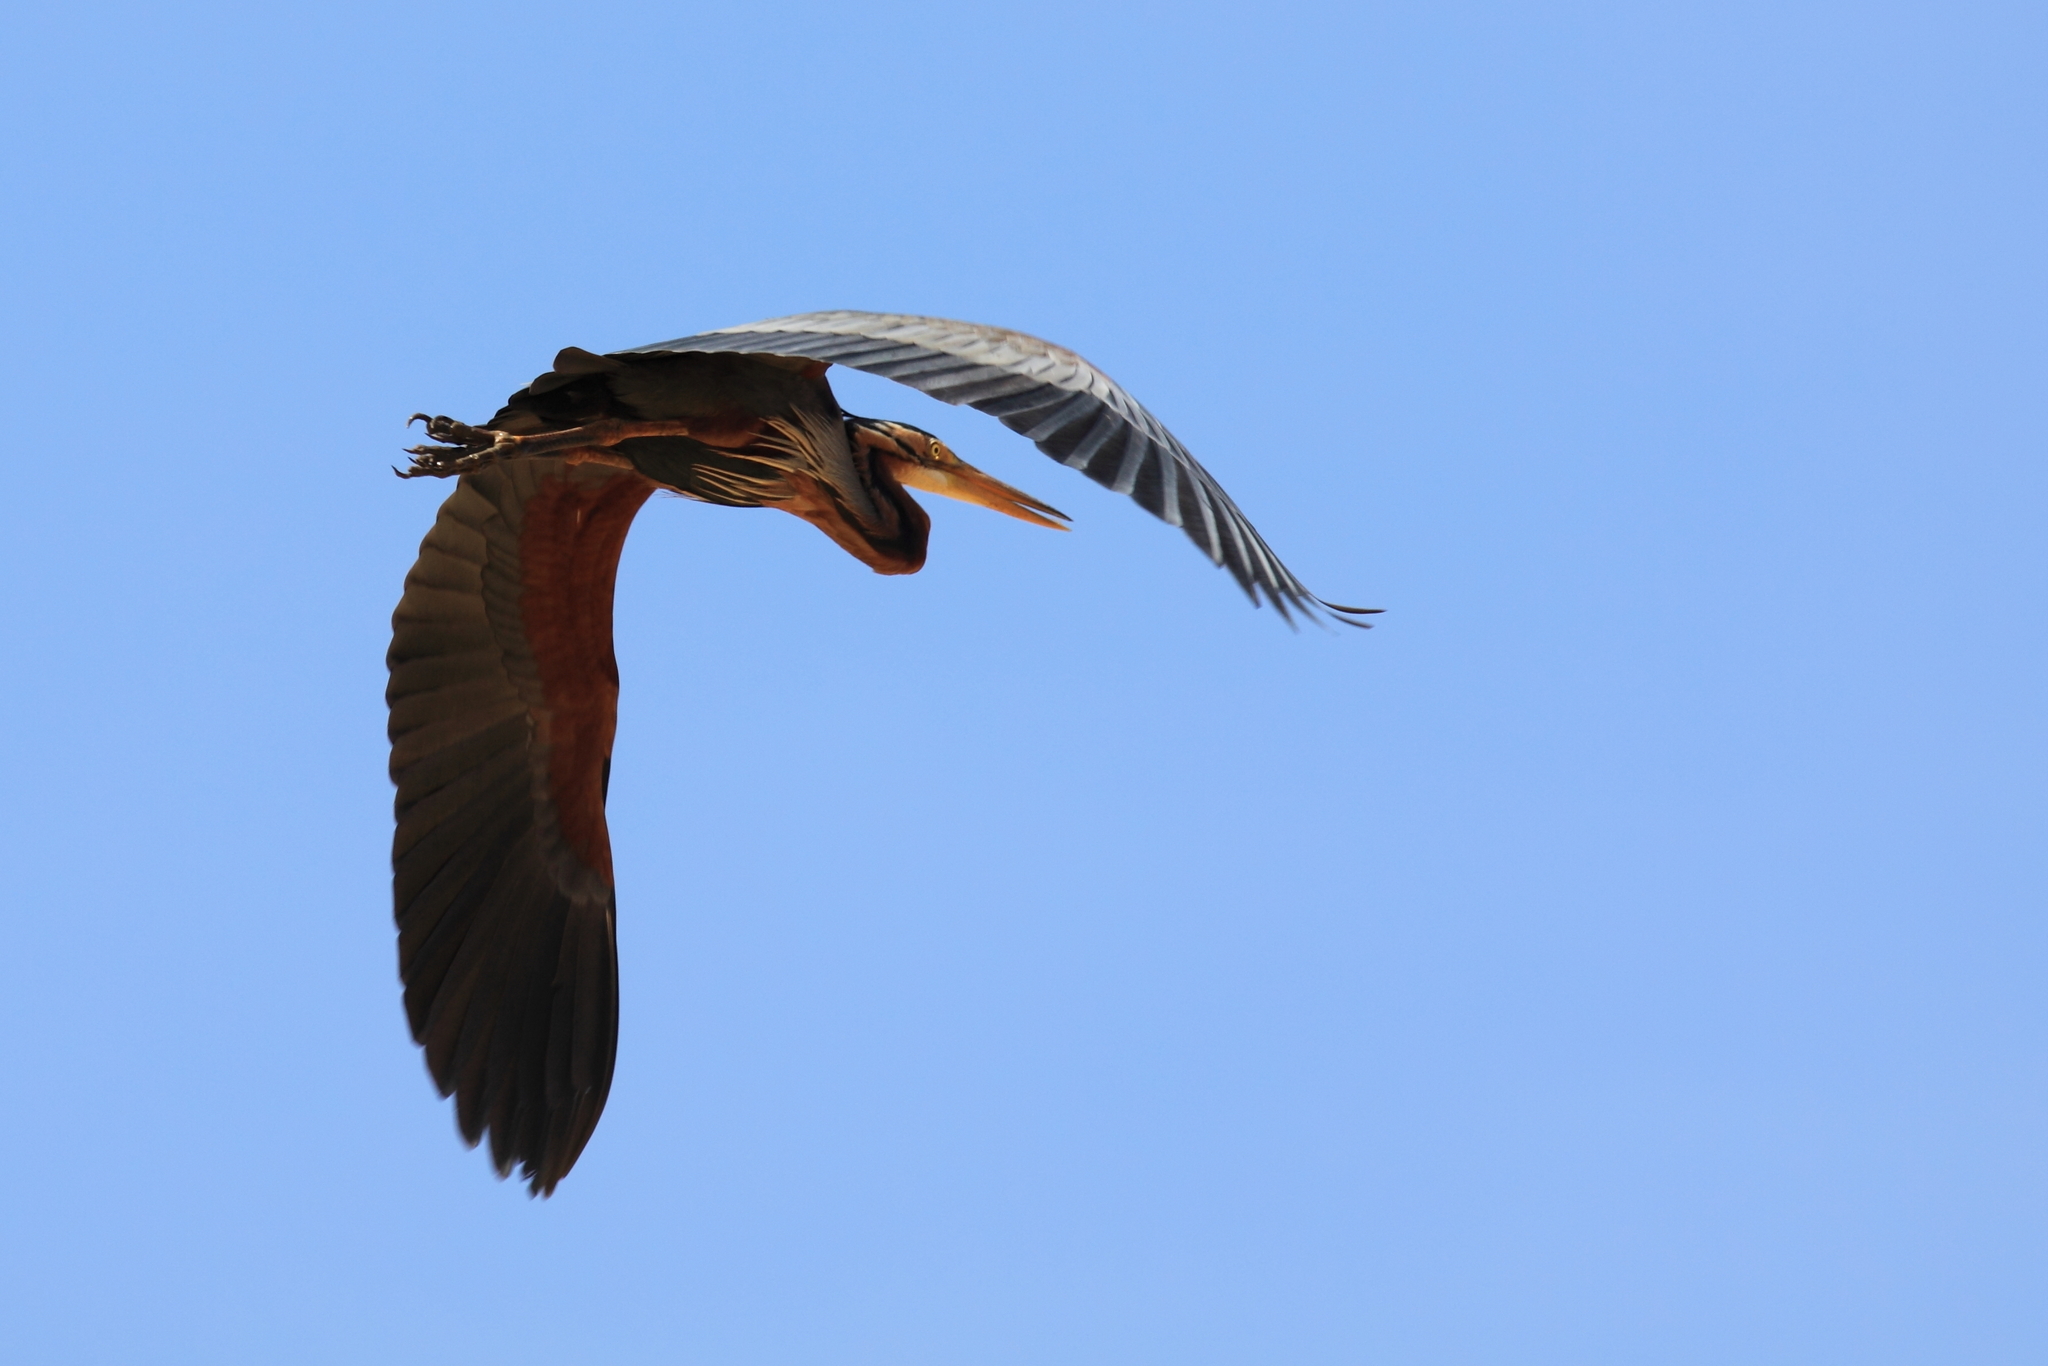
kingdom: Animalia
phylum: Chordata
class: Aves
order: Pelecaniformes
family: Ardeidae
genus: Ardea
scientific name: Ardea purpurea
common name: Purple heron
